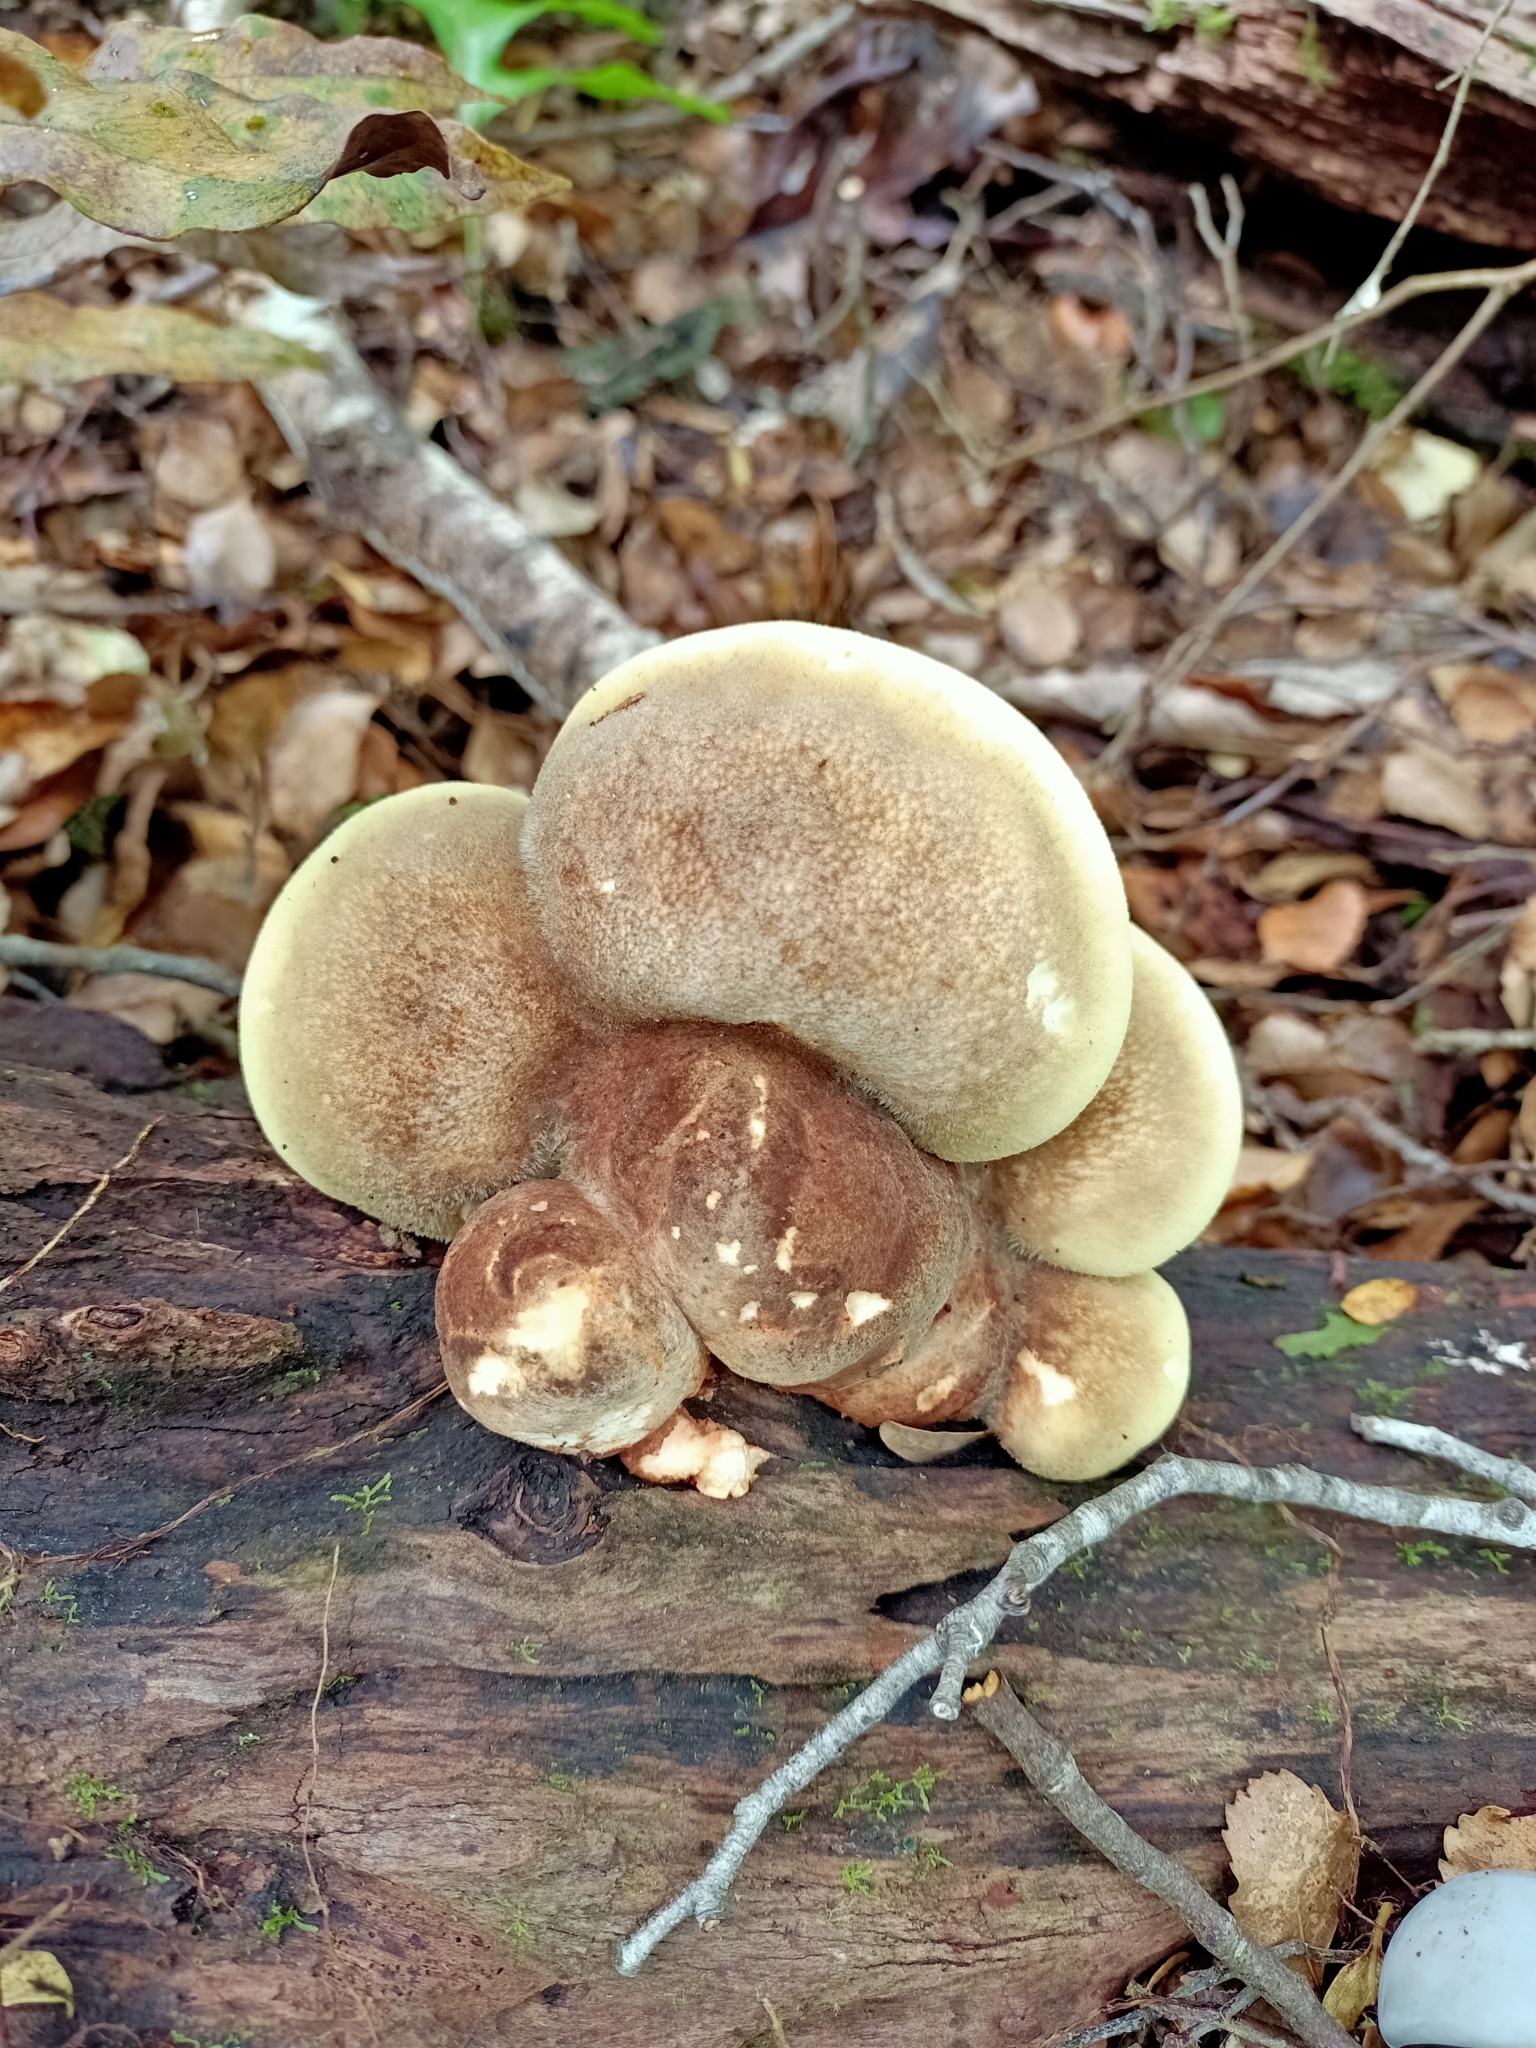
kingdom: Fungi
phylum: Basidiomycota
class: Agaricomycetes
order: Polyporales
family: Laetiporaceae
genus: Laetiporus
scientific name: Laetiporus portentosus
